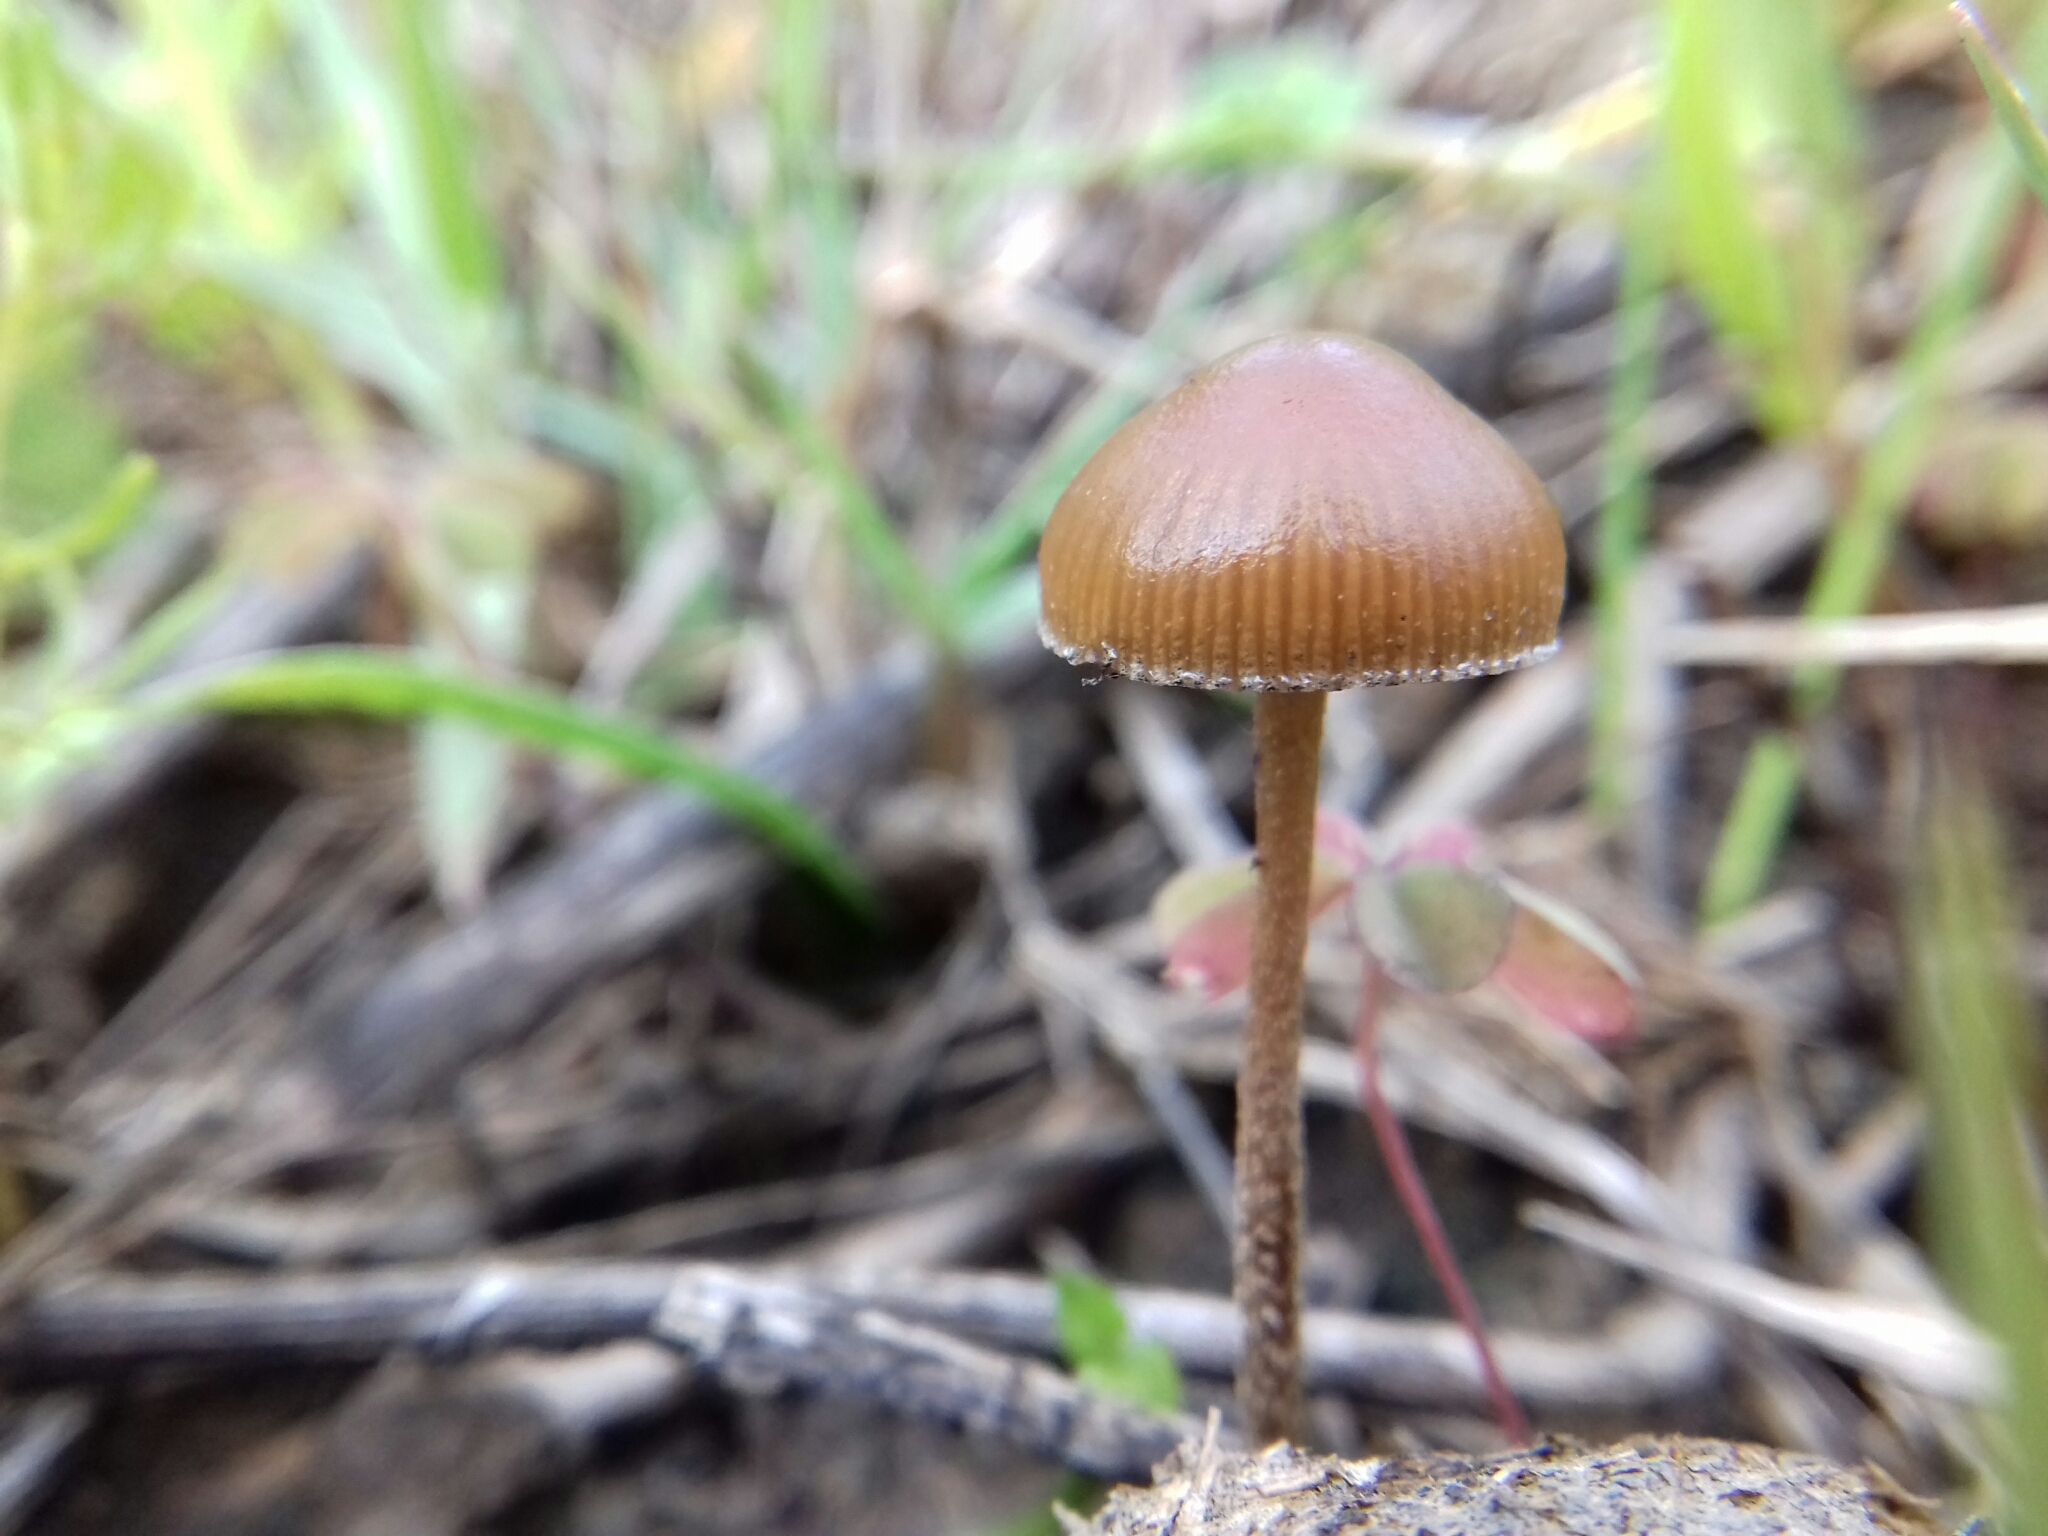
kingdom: Fungi
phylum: Basidiomycota
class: Agaricomycetes
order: Agaricales
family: Strophariaceae
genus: Deconica
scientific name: Deconica coprophila
